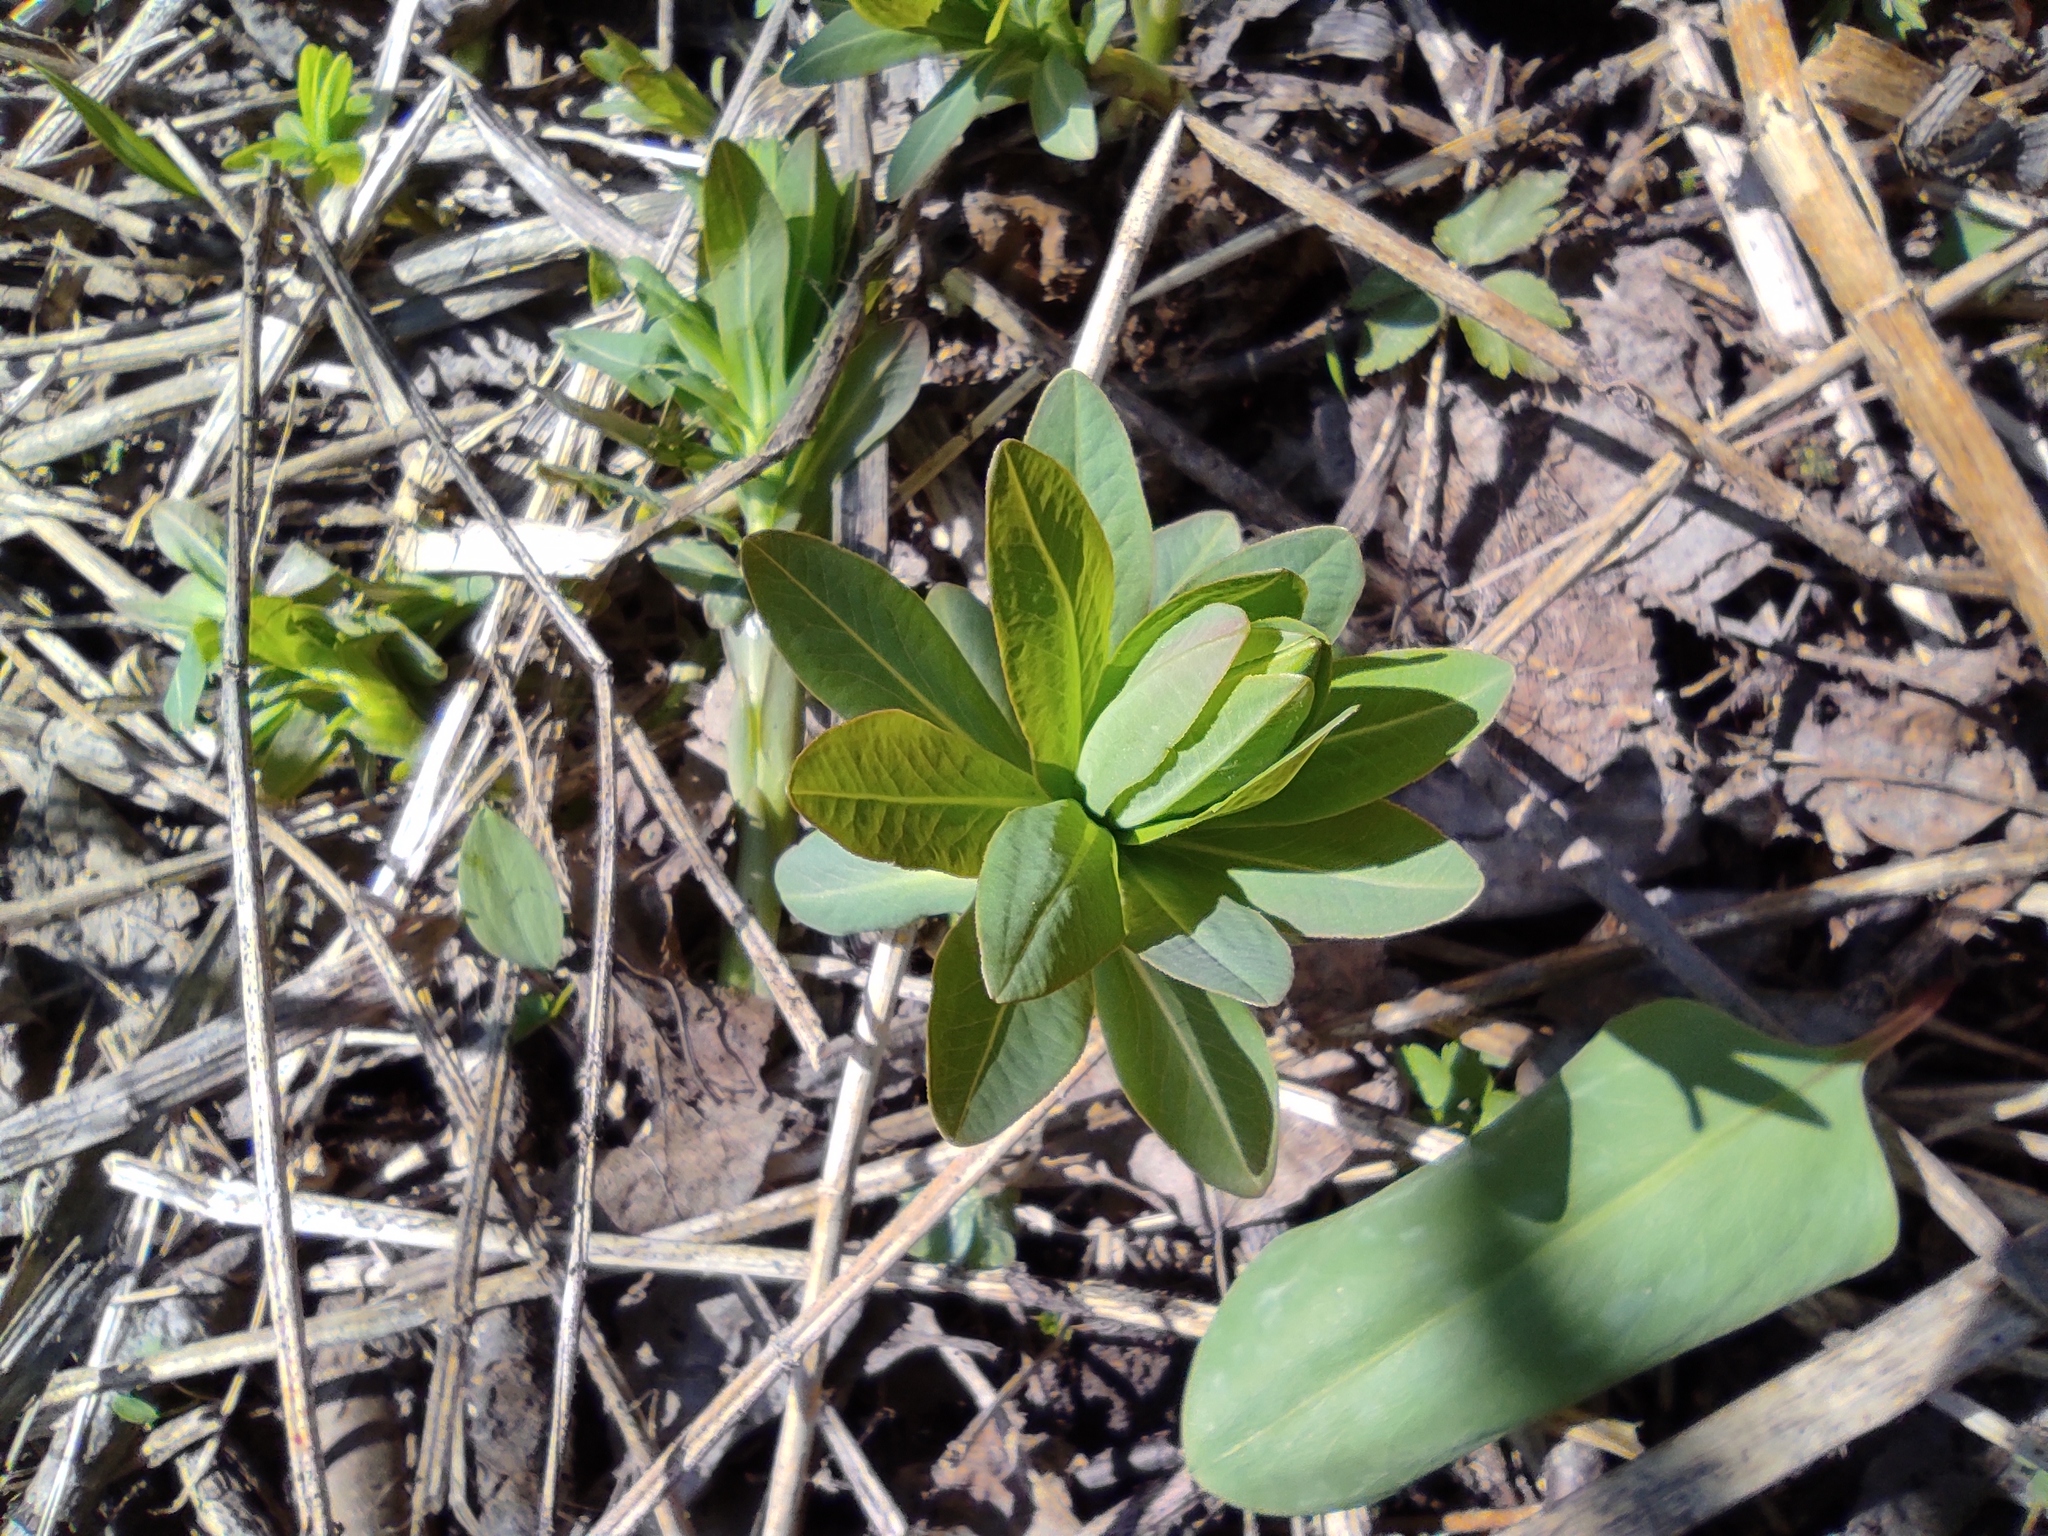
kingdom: Plantae
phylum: Tracheophyta
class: Magnoliopsida
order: Malpighiales
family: Euphorbiaceae
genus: Euphorbia
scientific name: Euphorbia pilosa
